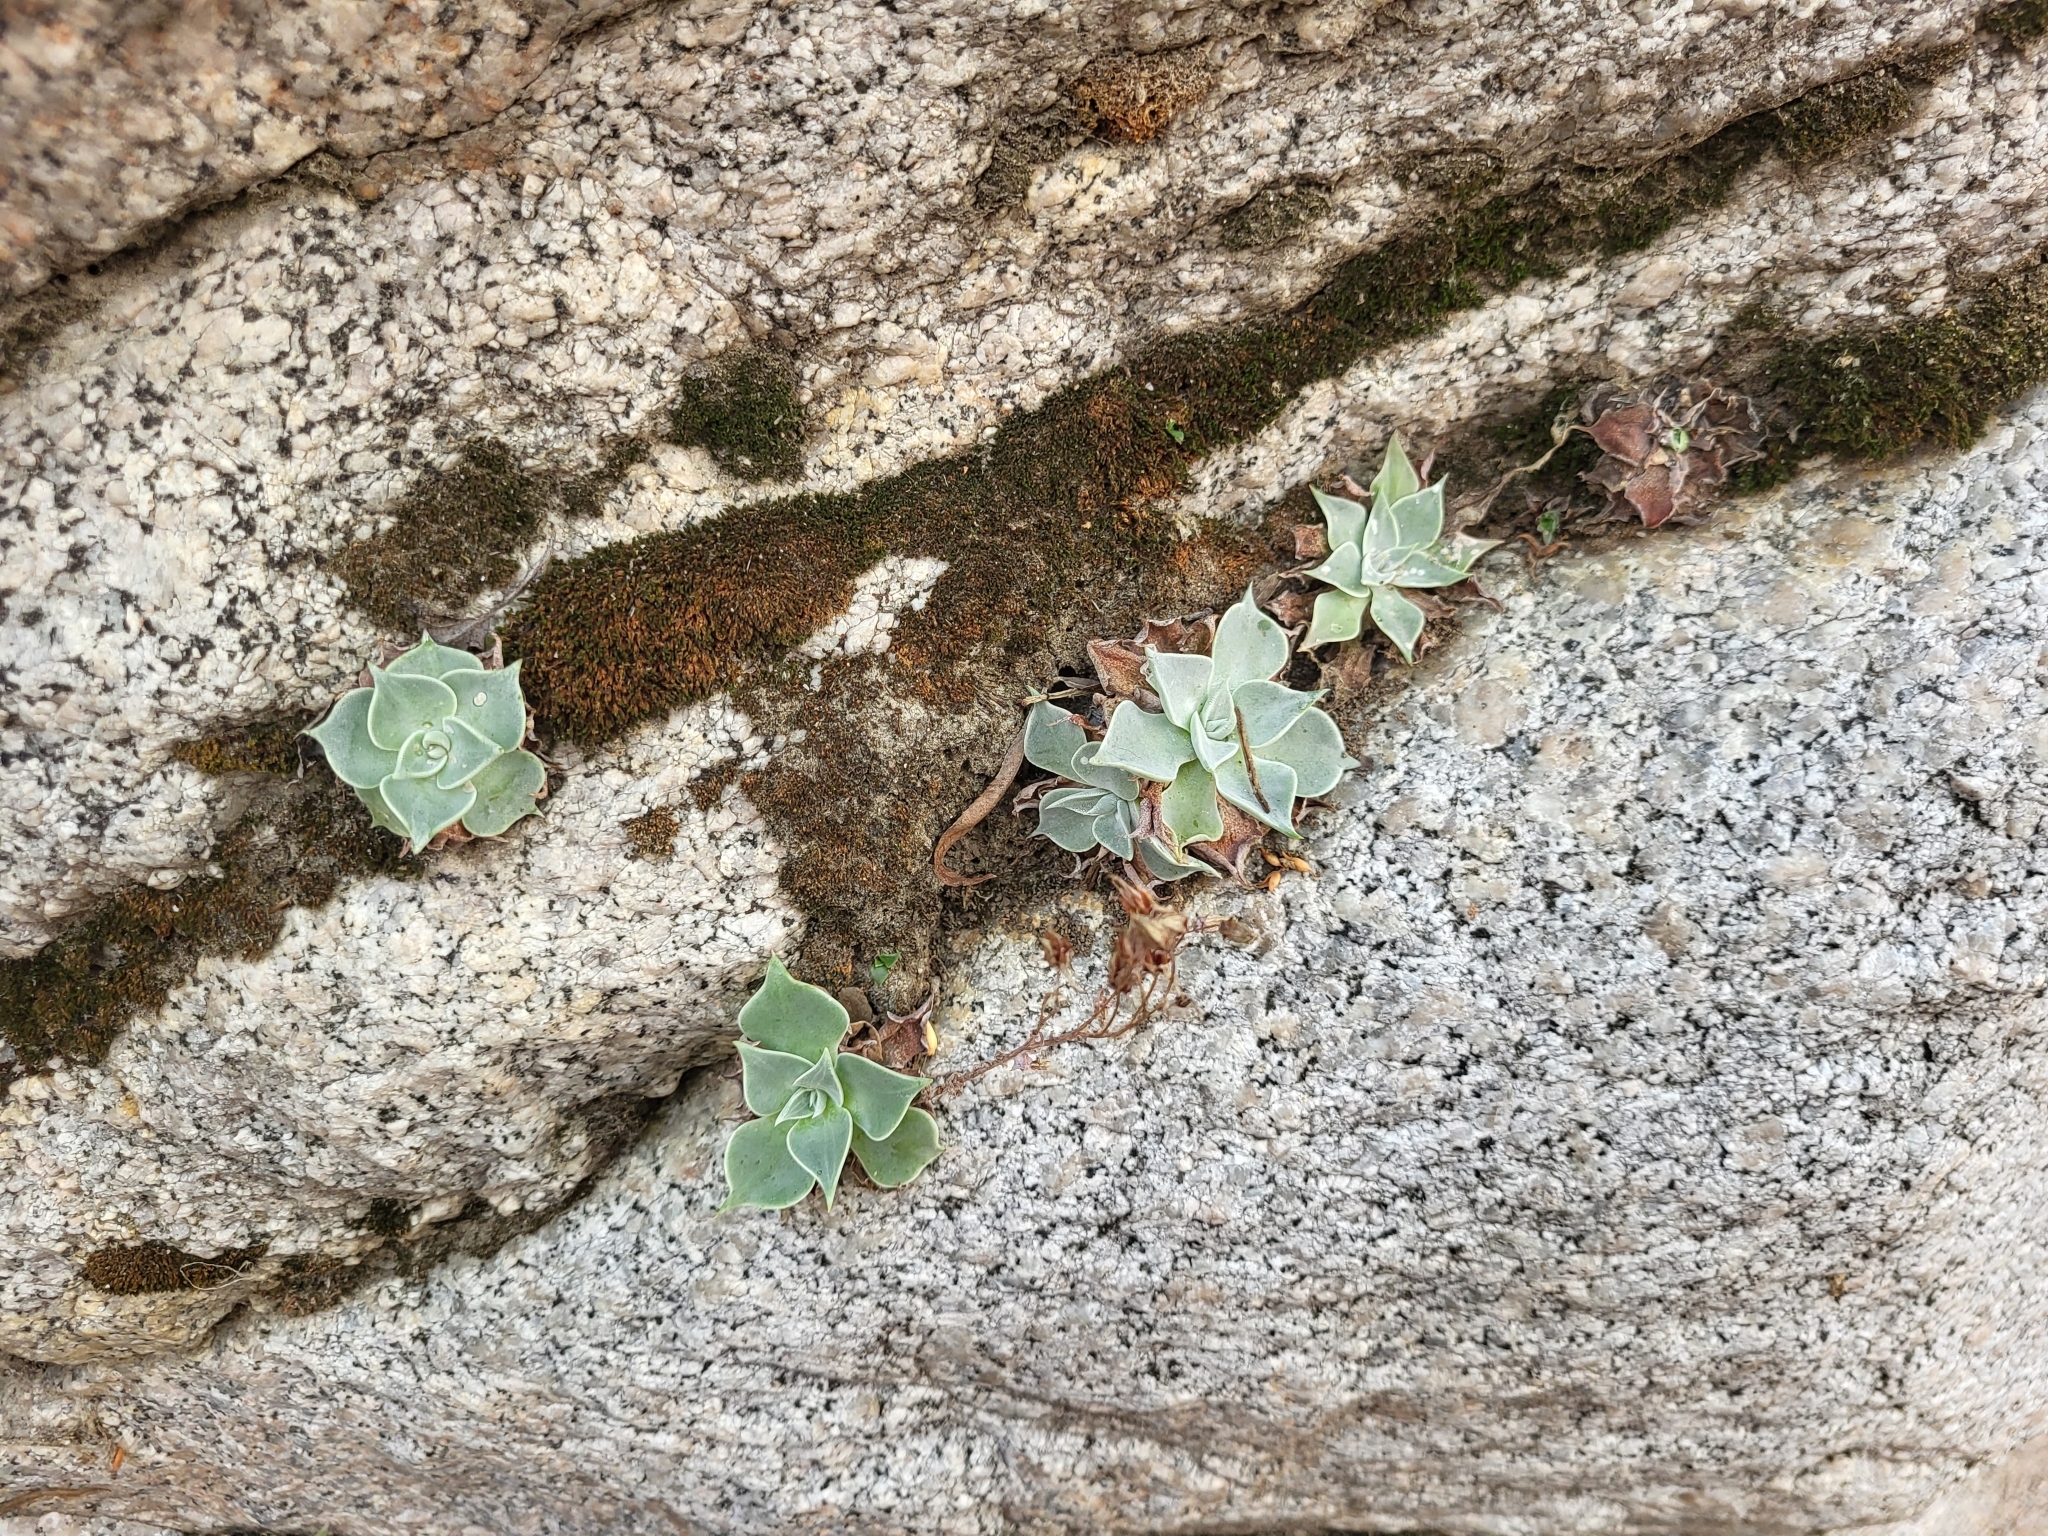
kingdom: Plantae
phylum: Tracheophyta
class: Magnoliopsida
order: Saxifragales
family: Crassulaceae
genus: Dudleya
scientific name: Dudleya cymosa
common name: Canyon dudleya
